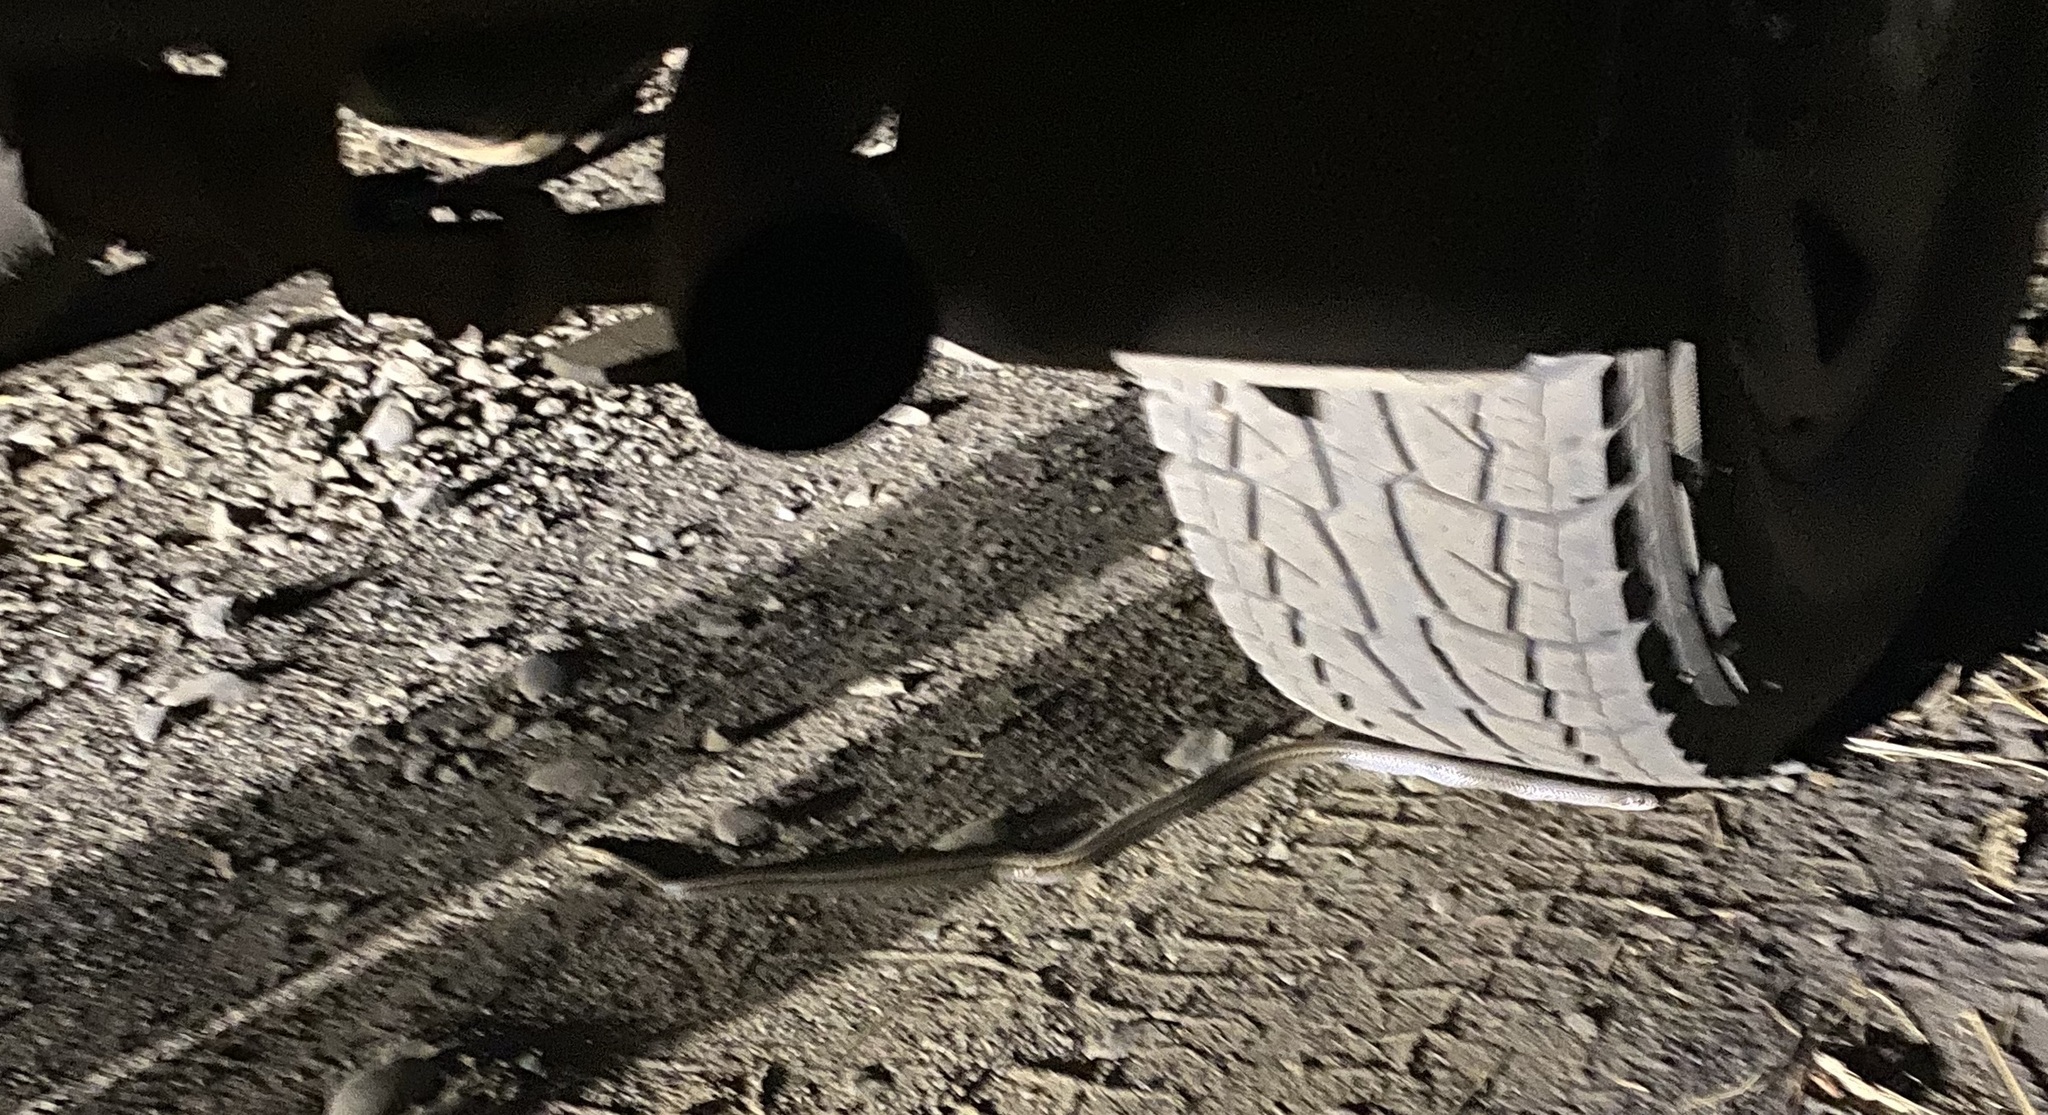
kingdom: Animalia
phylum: Chordata
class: Squamata
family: Colubridae
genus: Philodryas
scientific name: Philodryas chamissonis
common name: Chilean green racer
